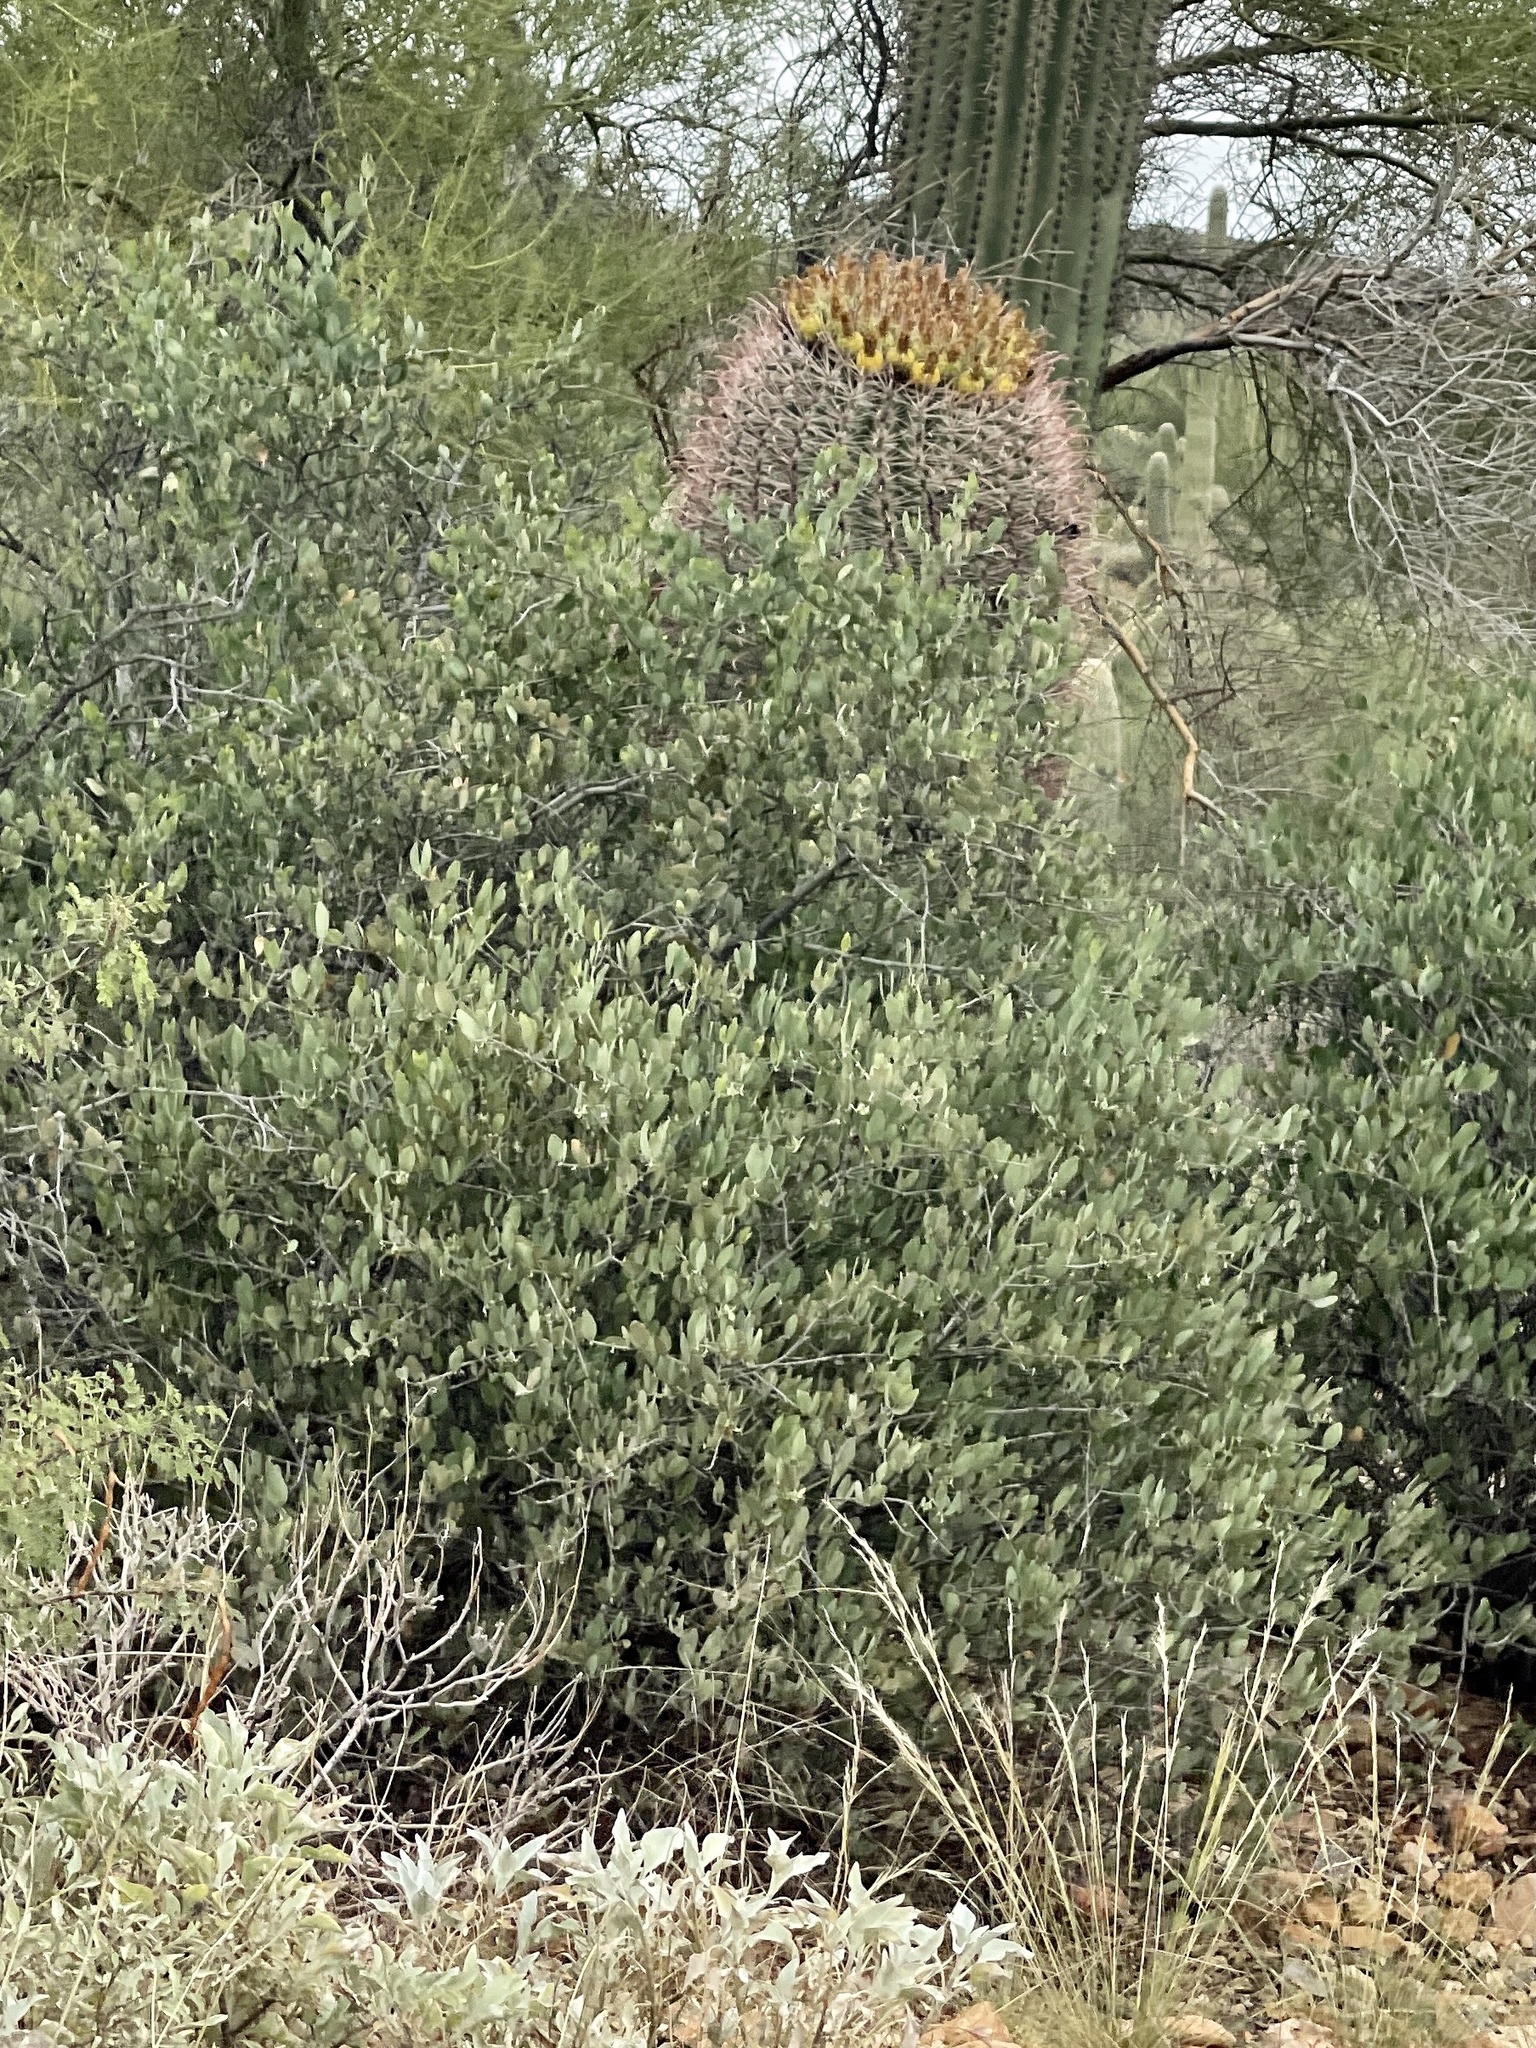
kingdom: Plantae
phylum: Tracheophyta
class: Magnoliopsida
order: Caryophyllales
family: Simmondsiaceae
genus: Simmondsia
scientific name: Simmondsia chinensis
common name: Jojoba
